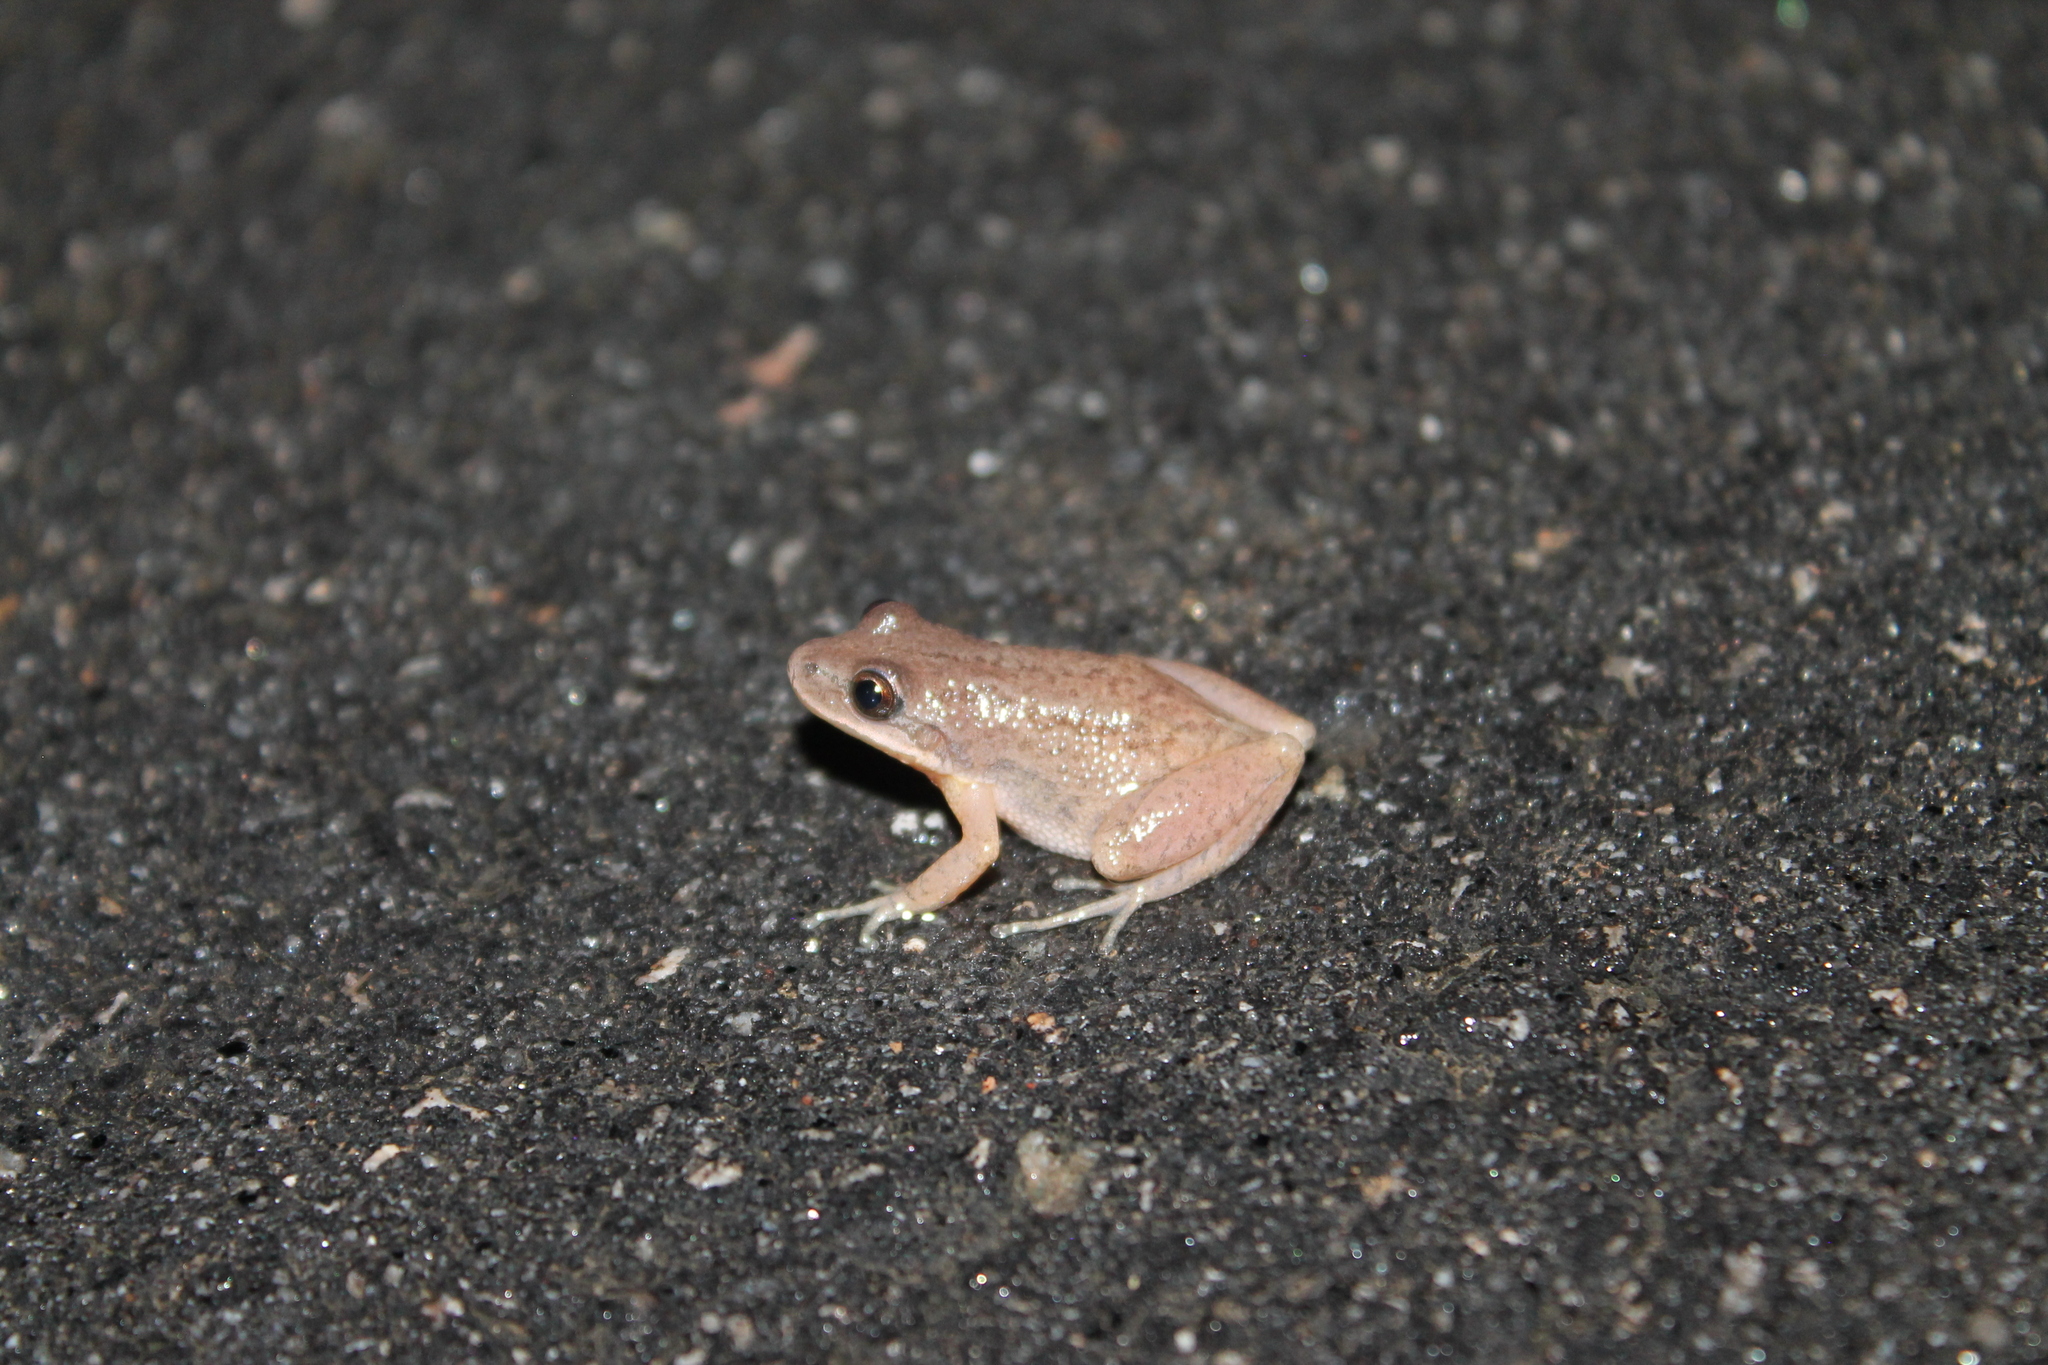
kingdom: Animalia
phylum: Chordata
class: Amphibia
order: Anura
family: Hylidae
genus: Pseudacris
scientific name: Pseudacris feriarum
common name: Upland chorus frog
